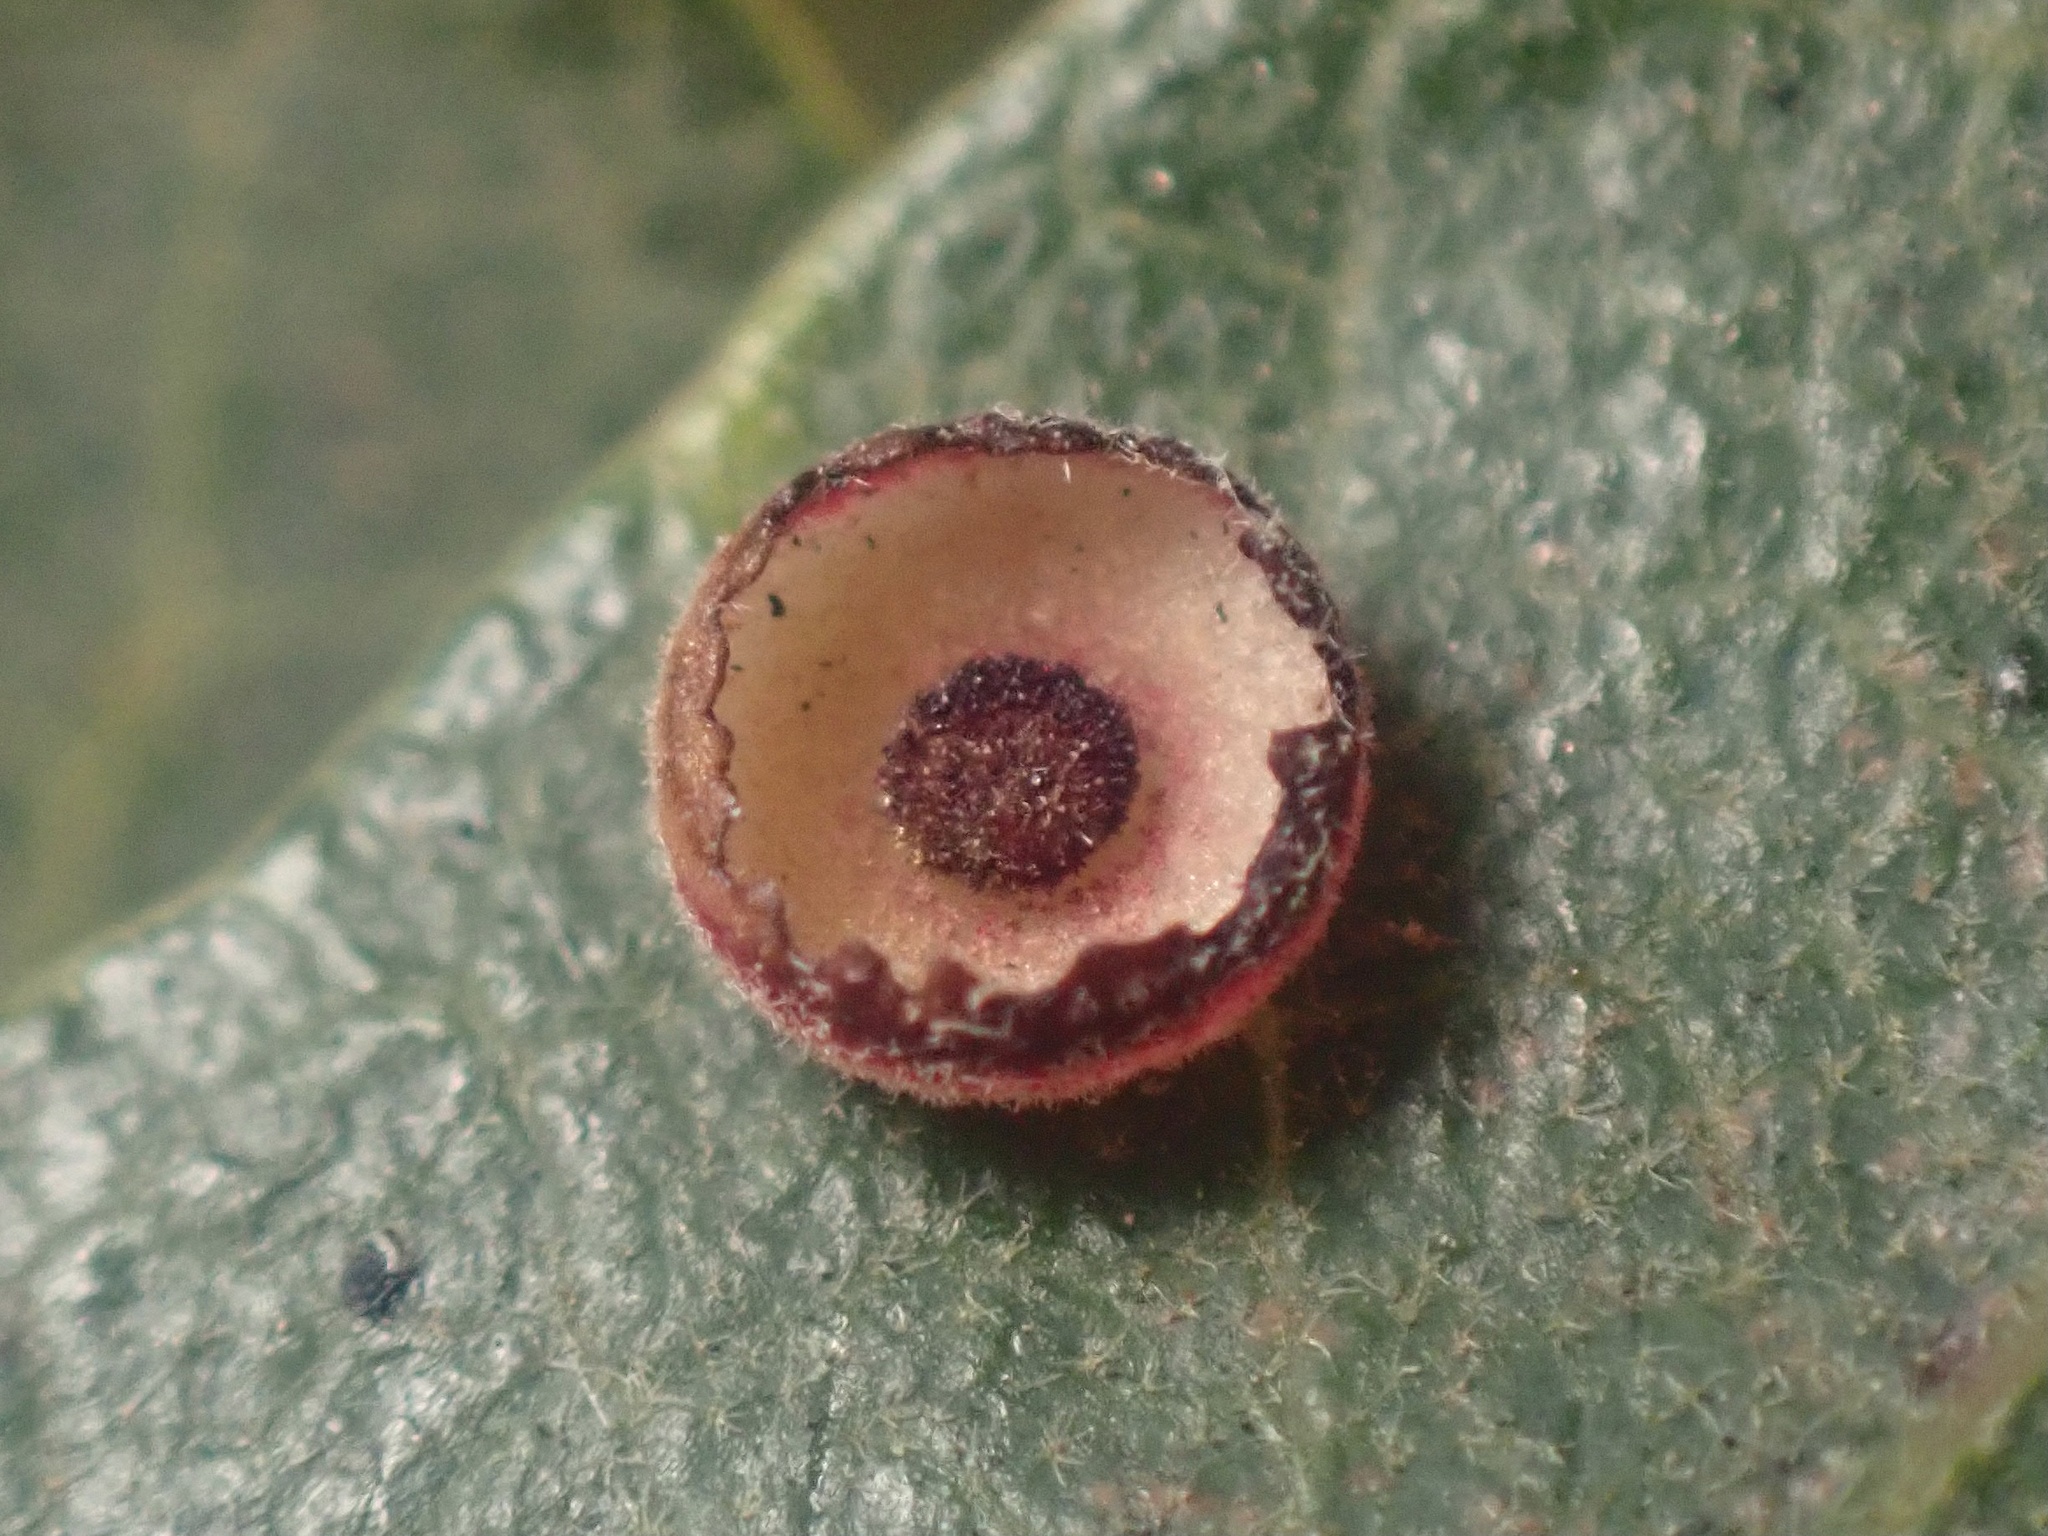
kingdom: Animalia
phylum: Arthropoda
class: Insecta
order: Hymenoptera
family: Cynipidae
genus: Andricus
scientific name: Andricus
